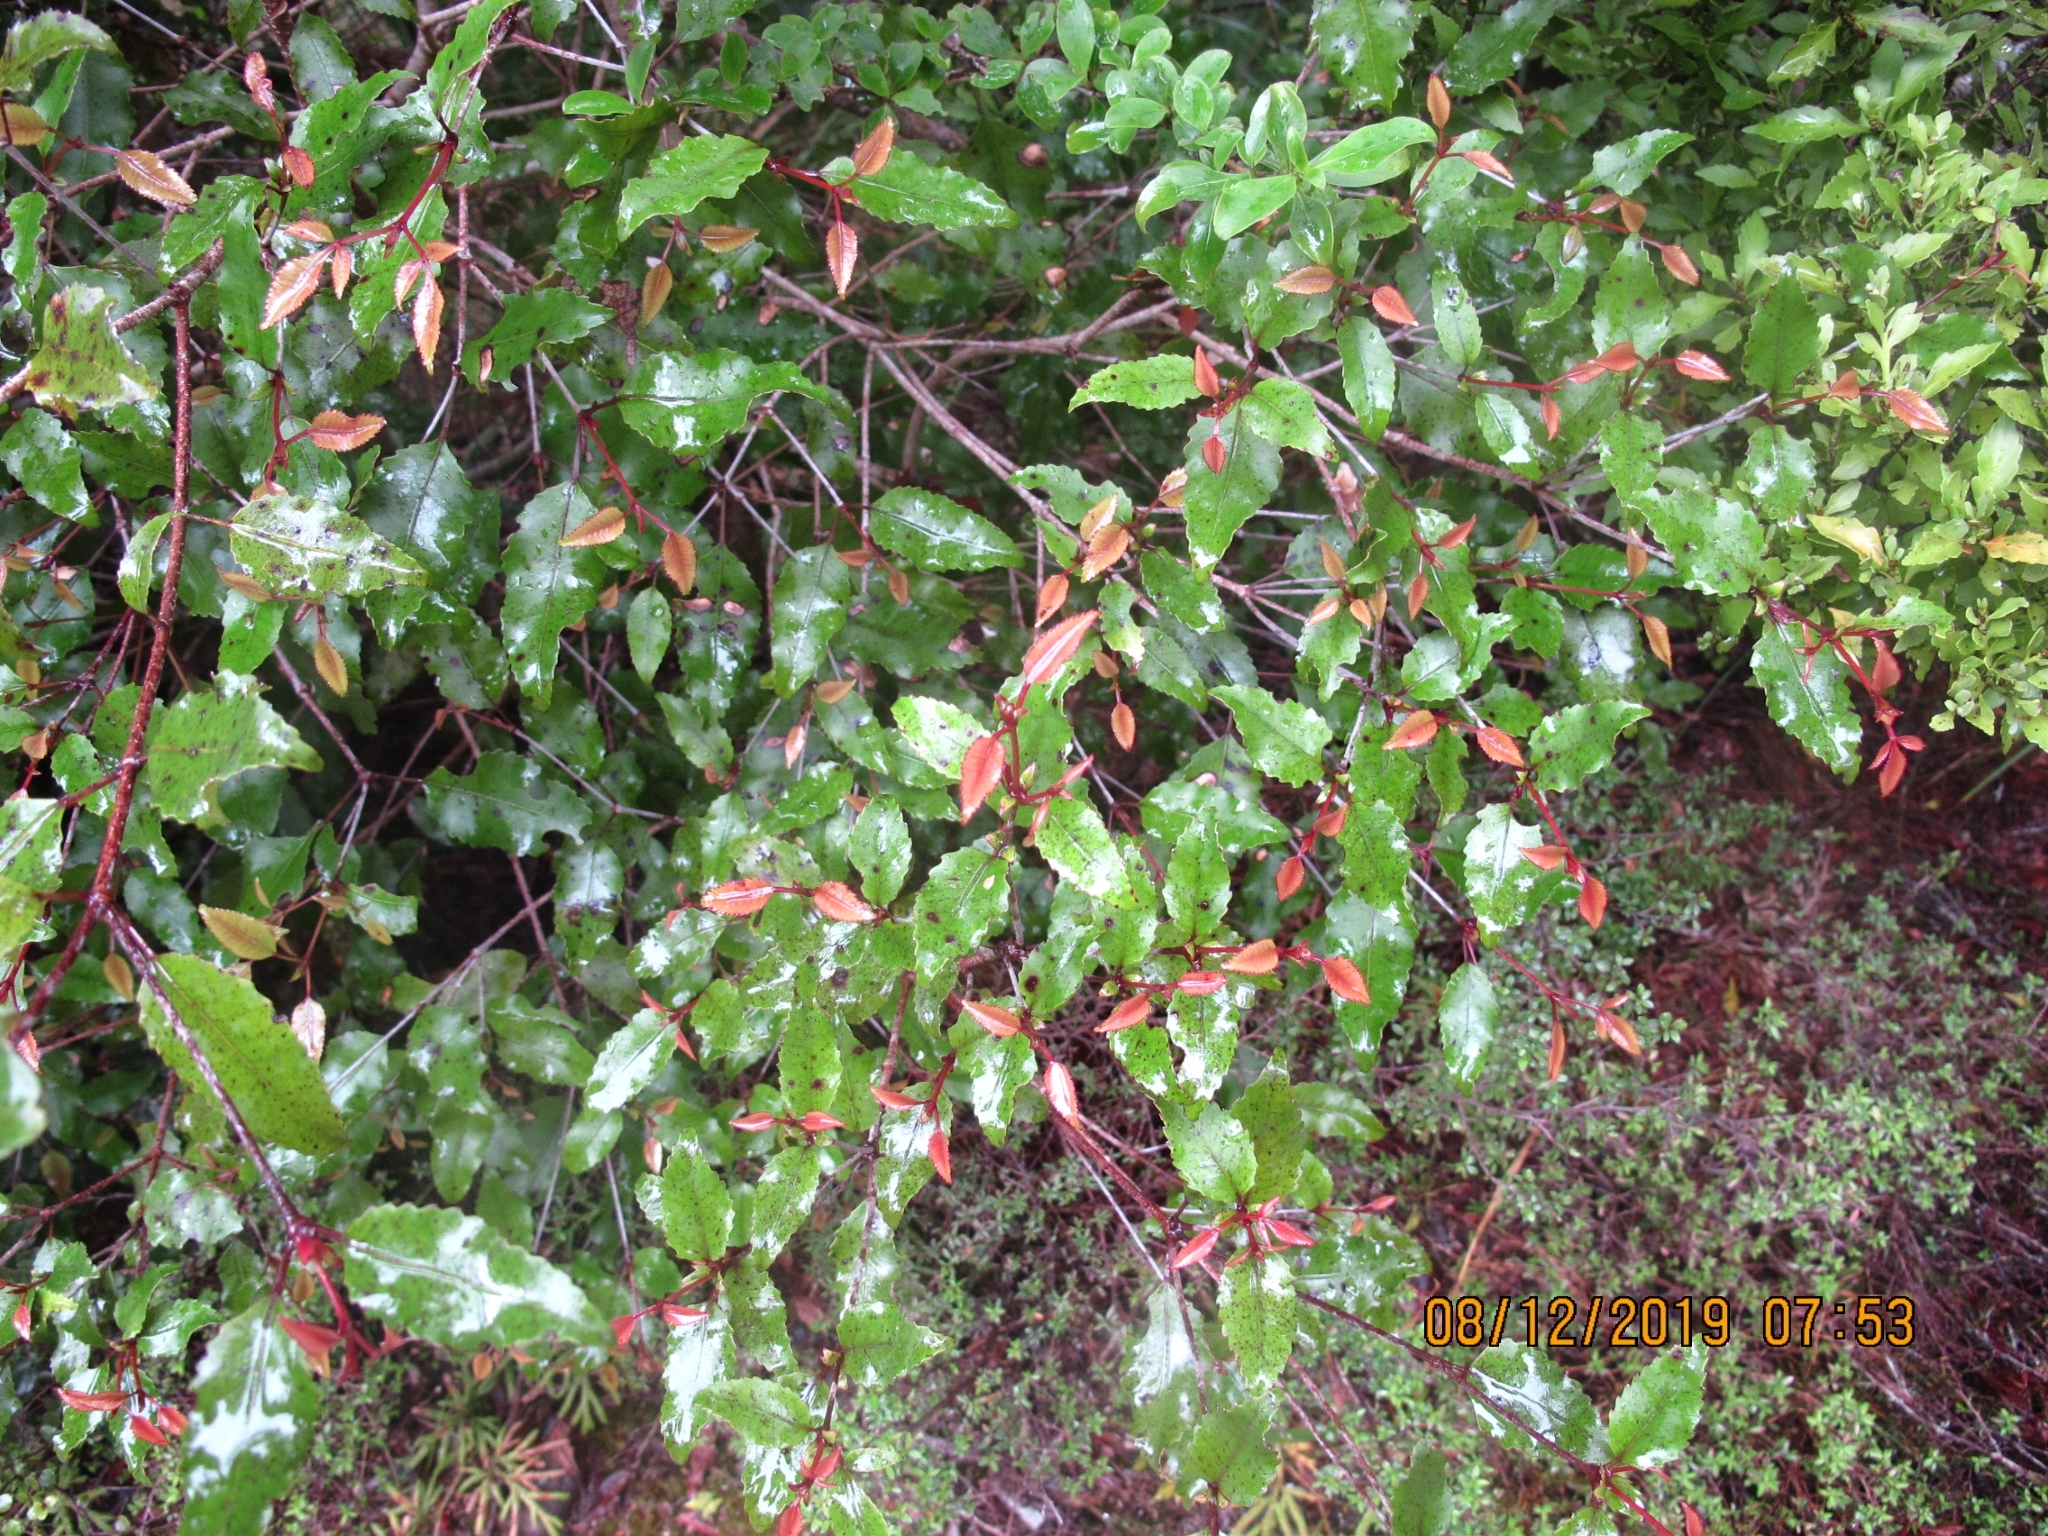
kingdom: Plantae
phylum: Tracheophyta
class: Magnoliopsida
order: Oxalidales
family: Cunoniaceae
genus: Pterophylla
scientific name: Pterophylla racemosa
